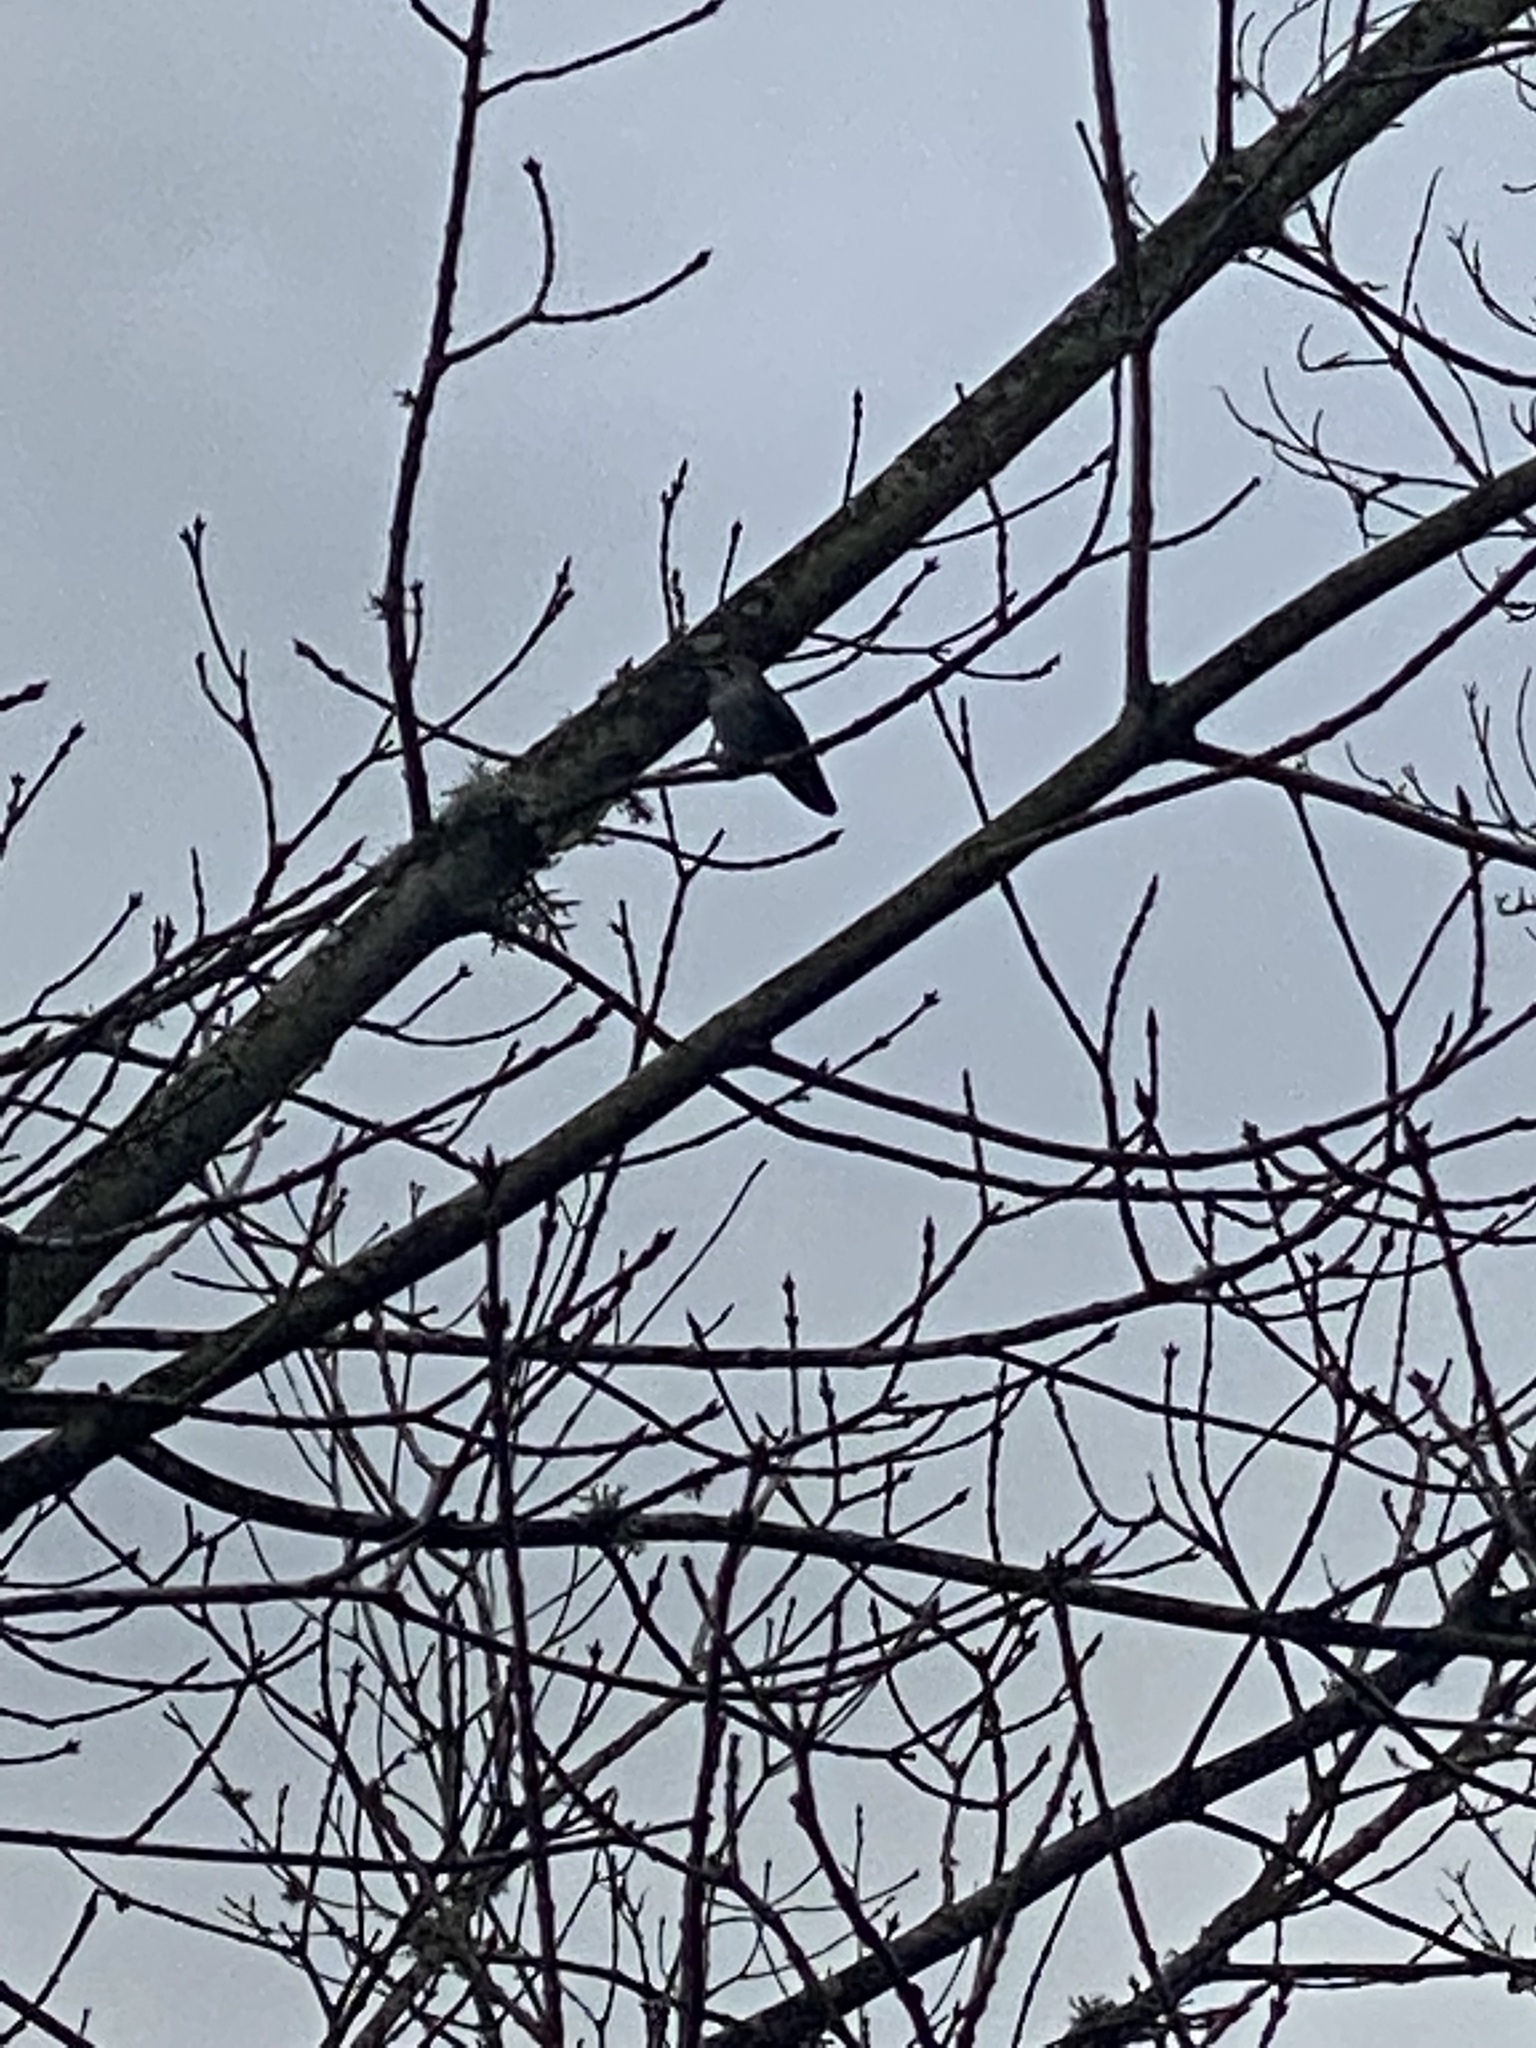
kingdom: Animalia
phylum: Chordata
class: Aves
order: Apodiformes
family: Trochilidae
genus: Calypte
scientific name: Calypte anna
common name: Anna's hummingbird
